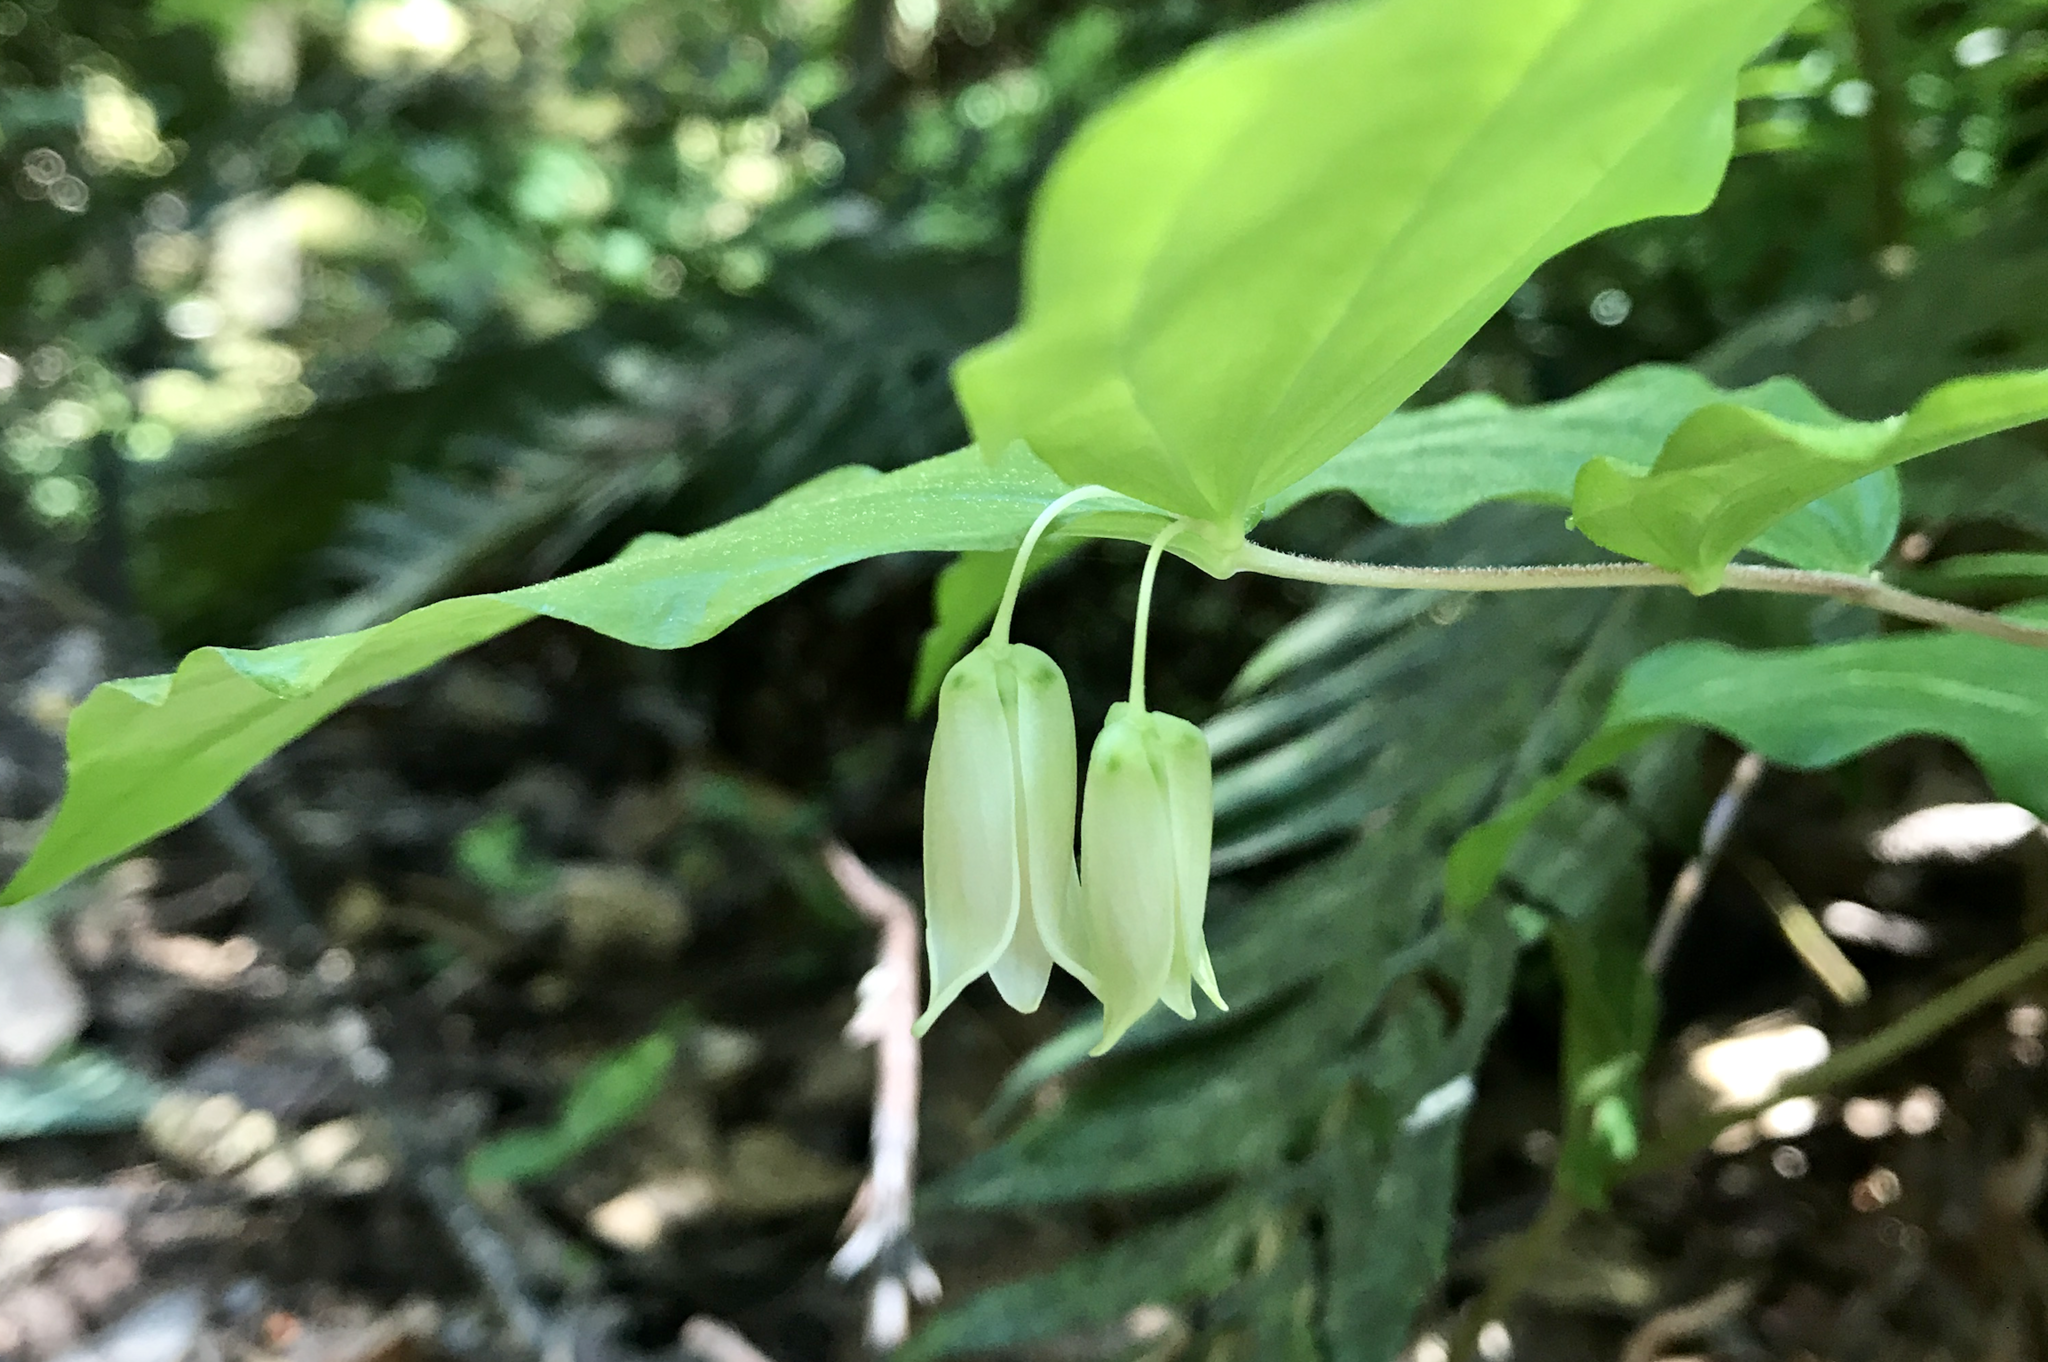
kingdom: Plantae
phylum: Tracheophyta
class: Liliopsida
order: Liliales
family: Liliaceae
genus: Prosartes
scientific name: Prosartes smithii
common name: Fairy-lantern
